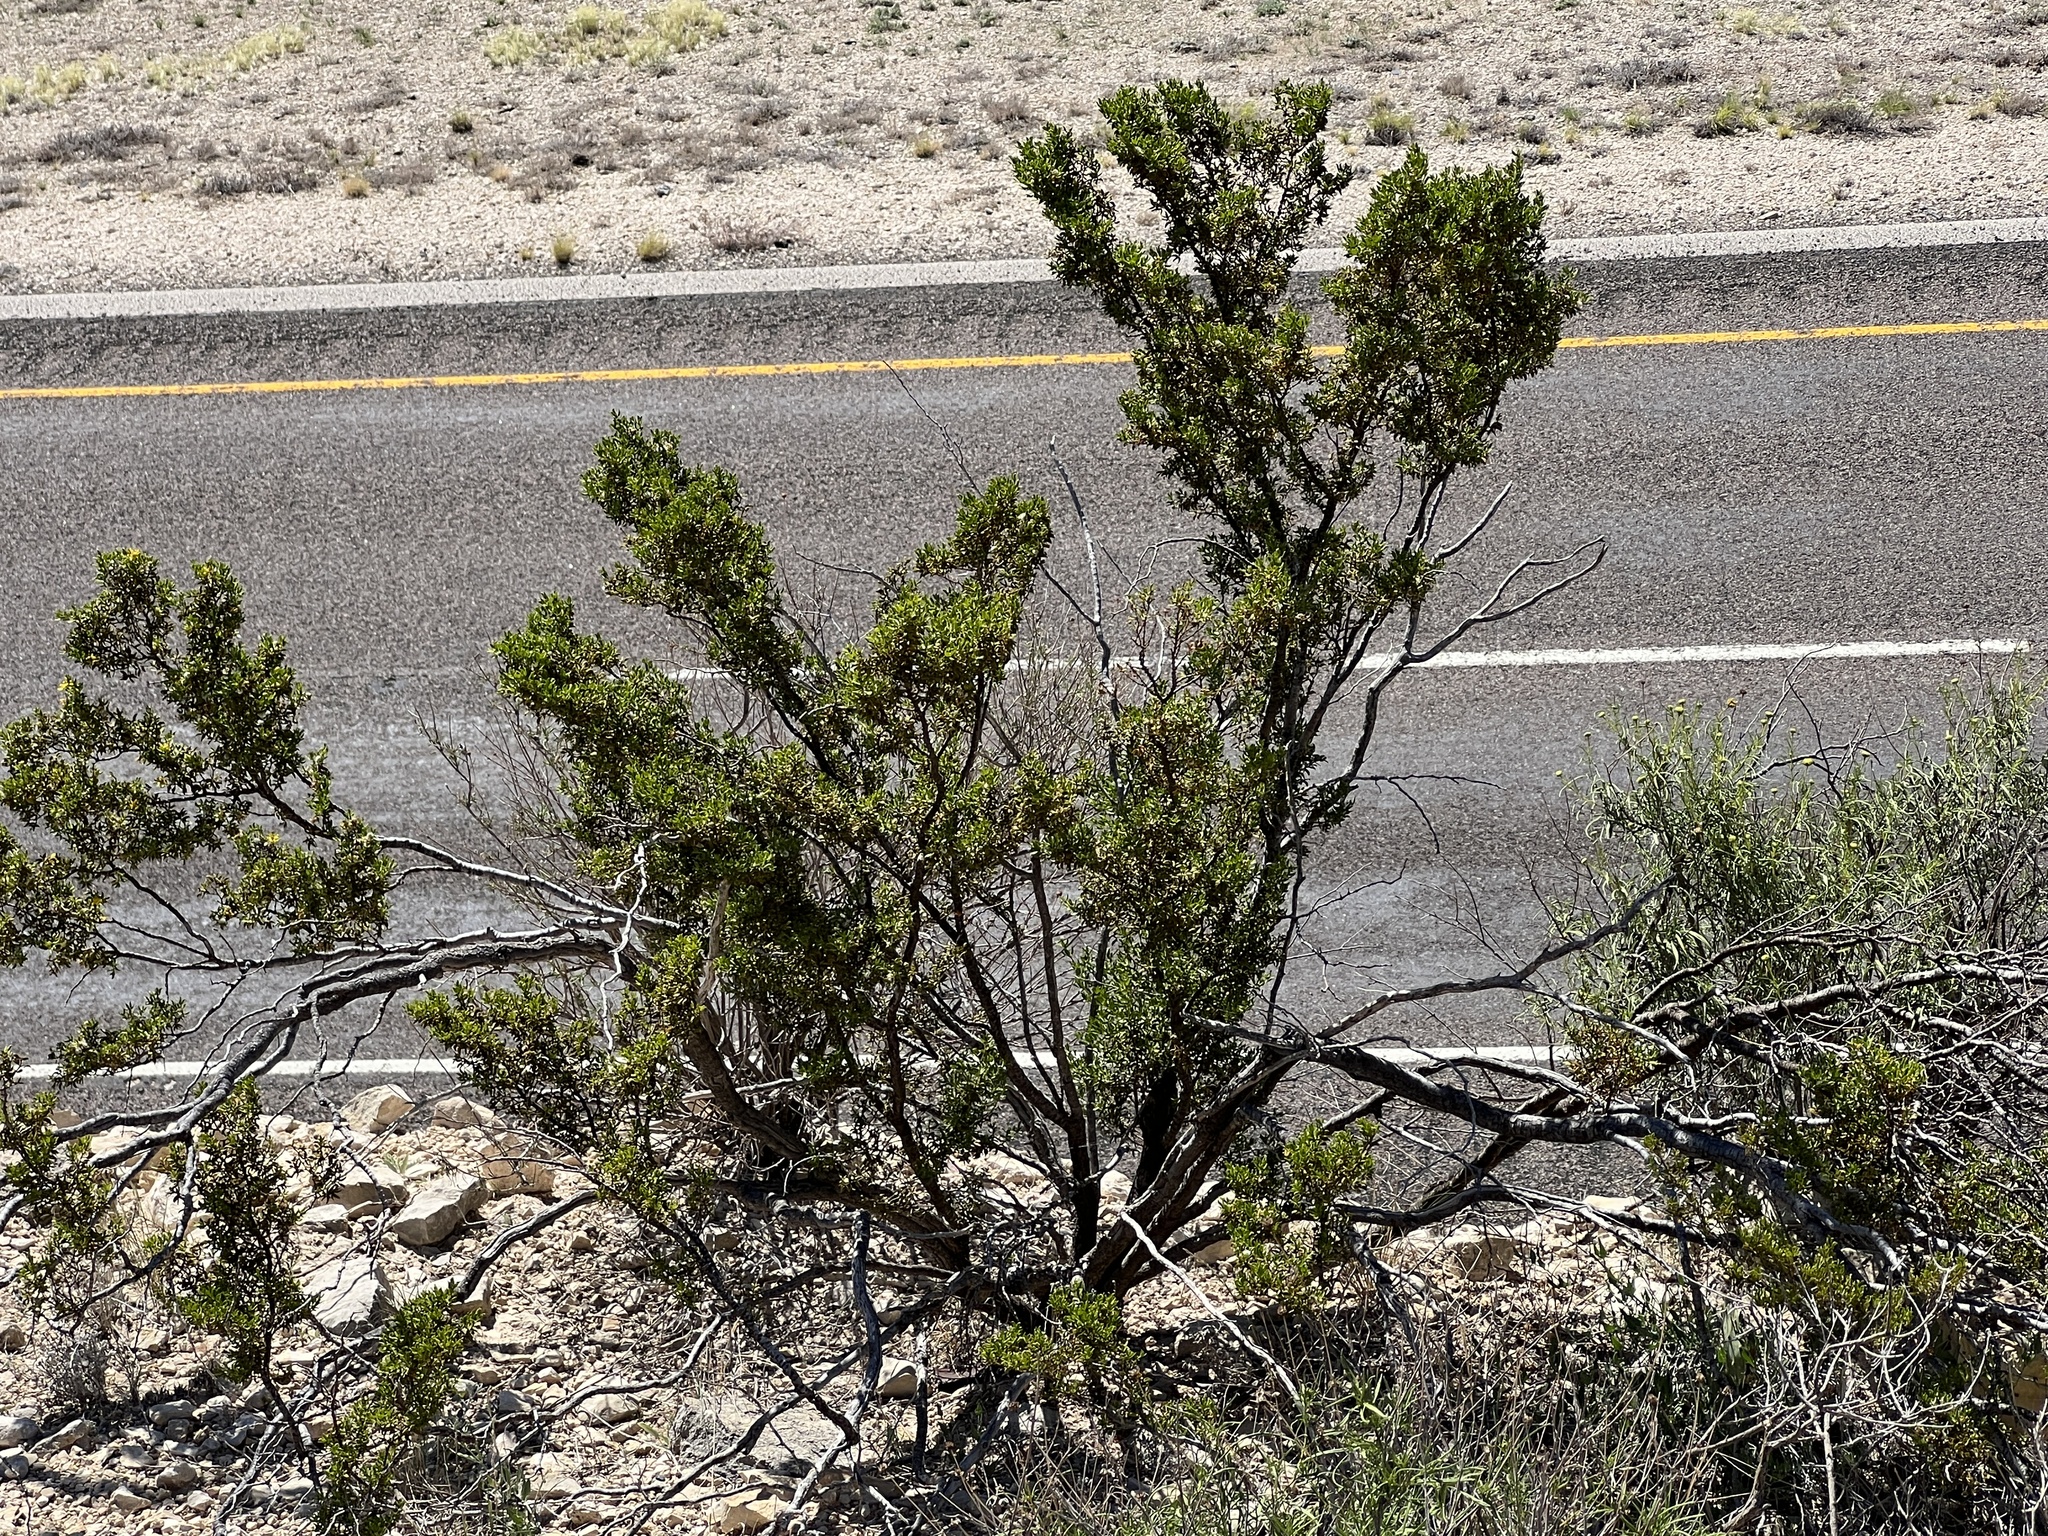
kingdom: Plantae
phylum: Tracheophyta
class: Magnoliopsida
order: Zygophyllales
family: Zygophyllaceae
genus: Larrea
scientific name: Larrea tridentata
